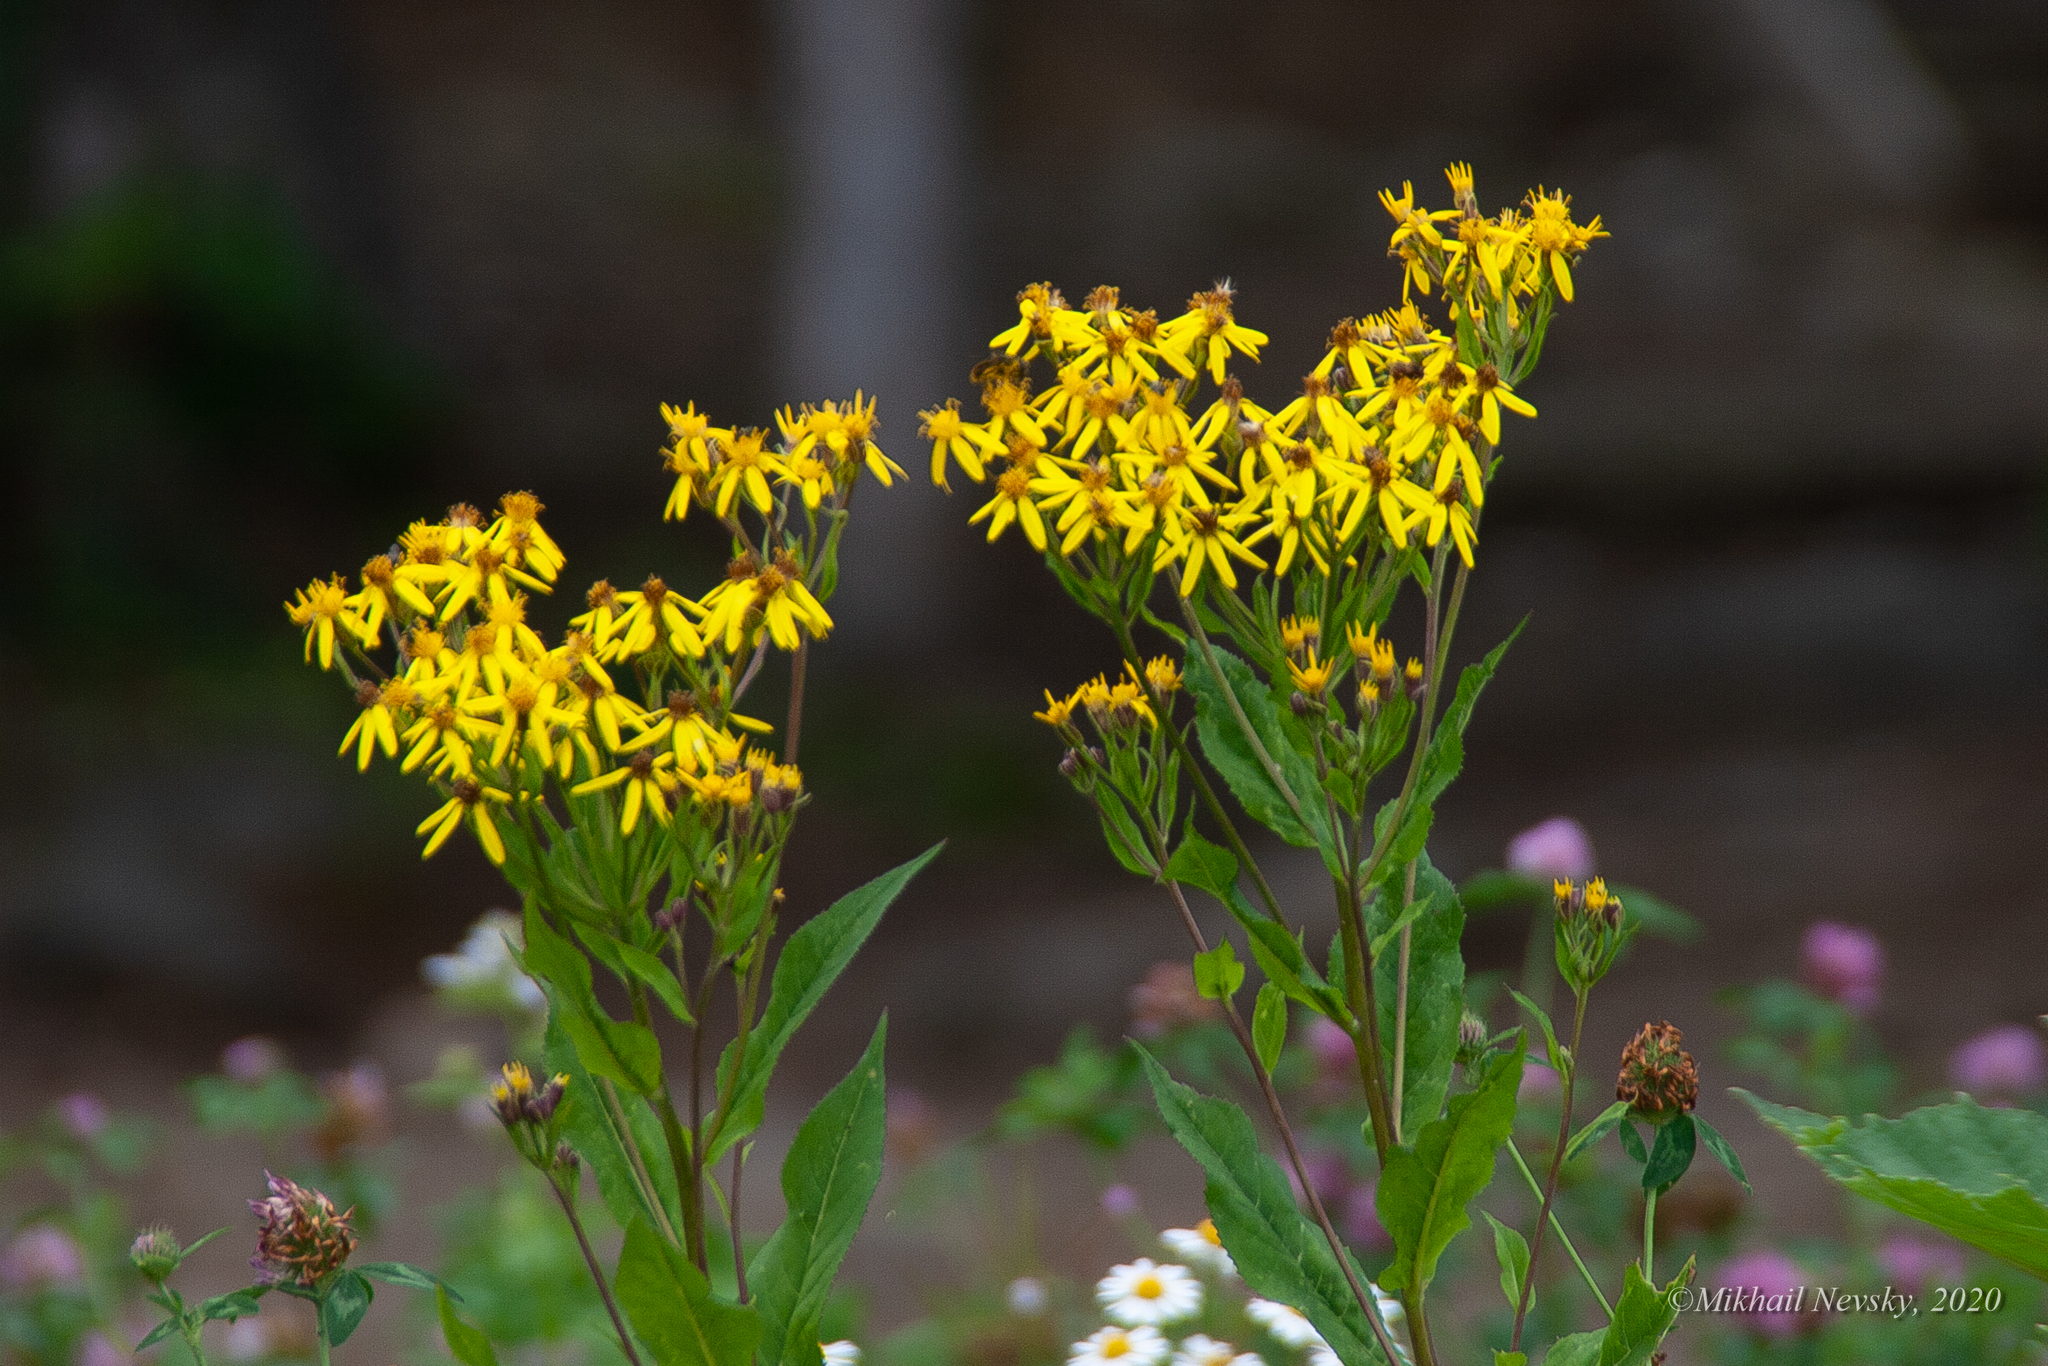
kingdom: Plantae
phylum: Tracheophyta
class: Magnoliopsida
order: Asterales
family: Asteraceae
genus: Senecio
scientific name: Senecio propinquus
